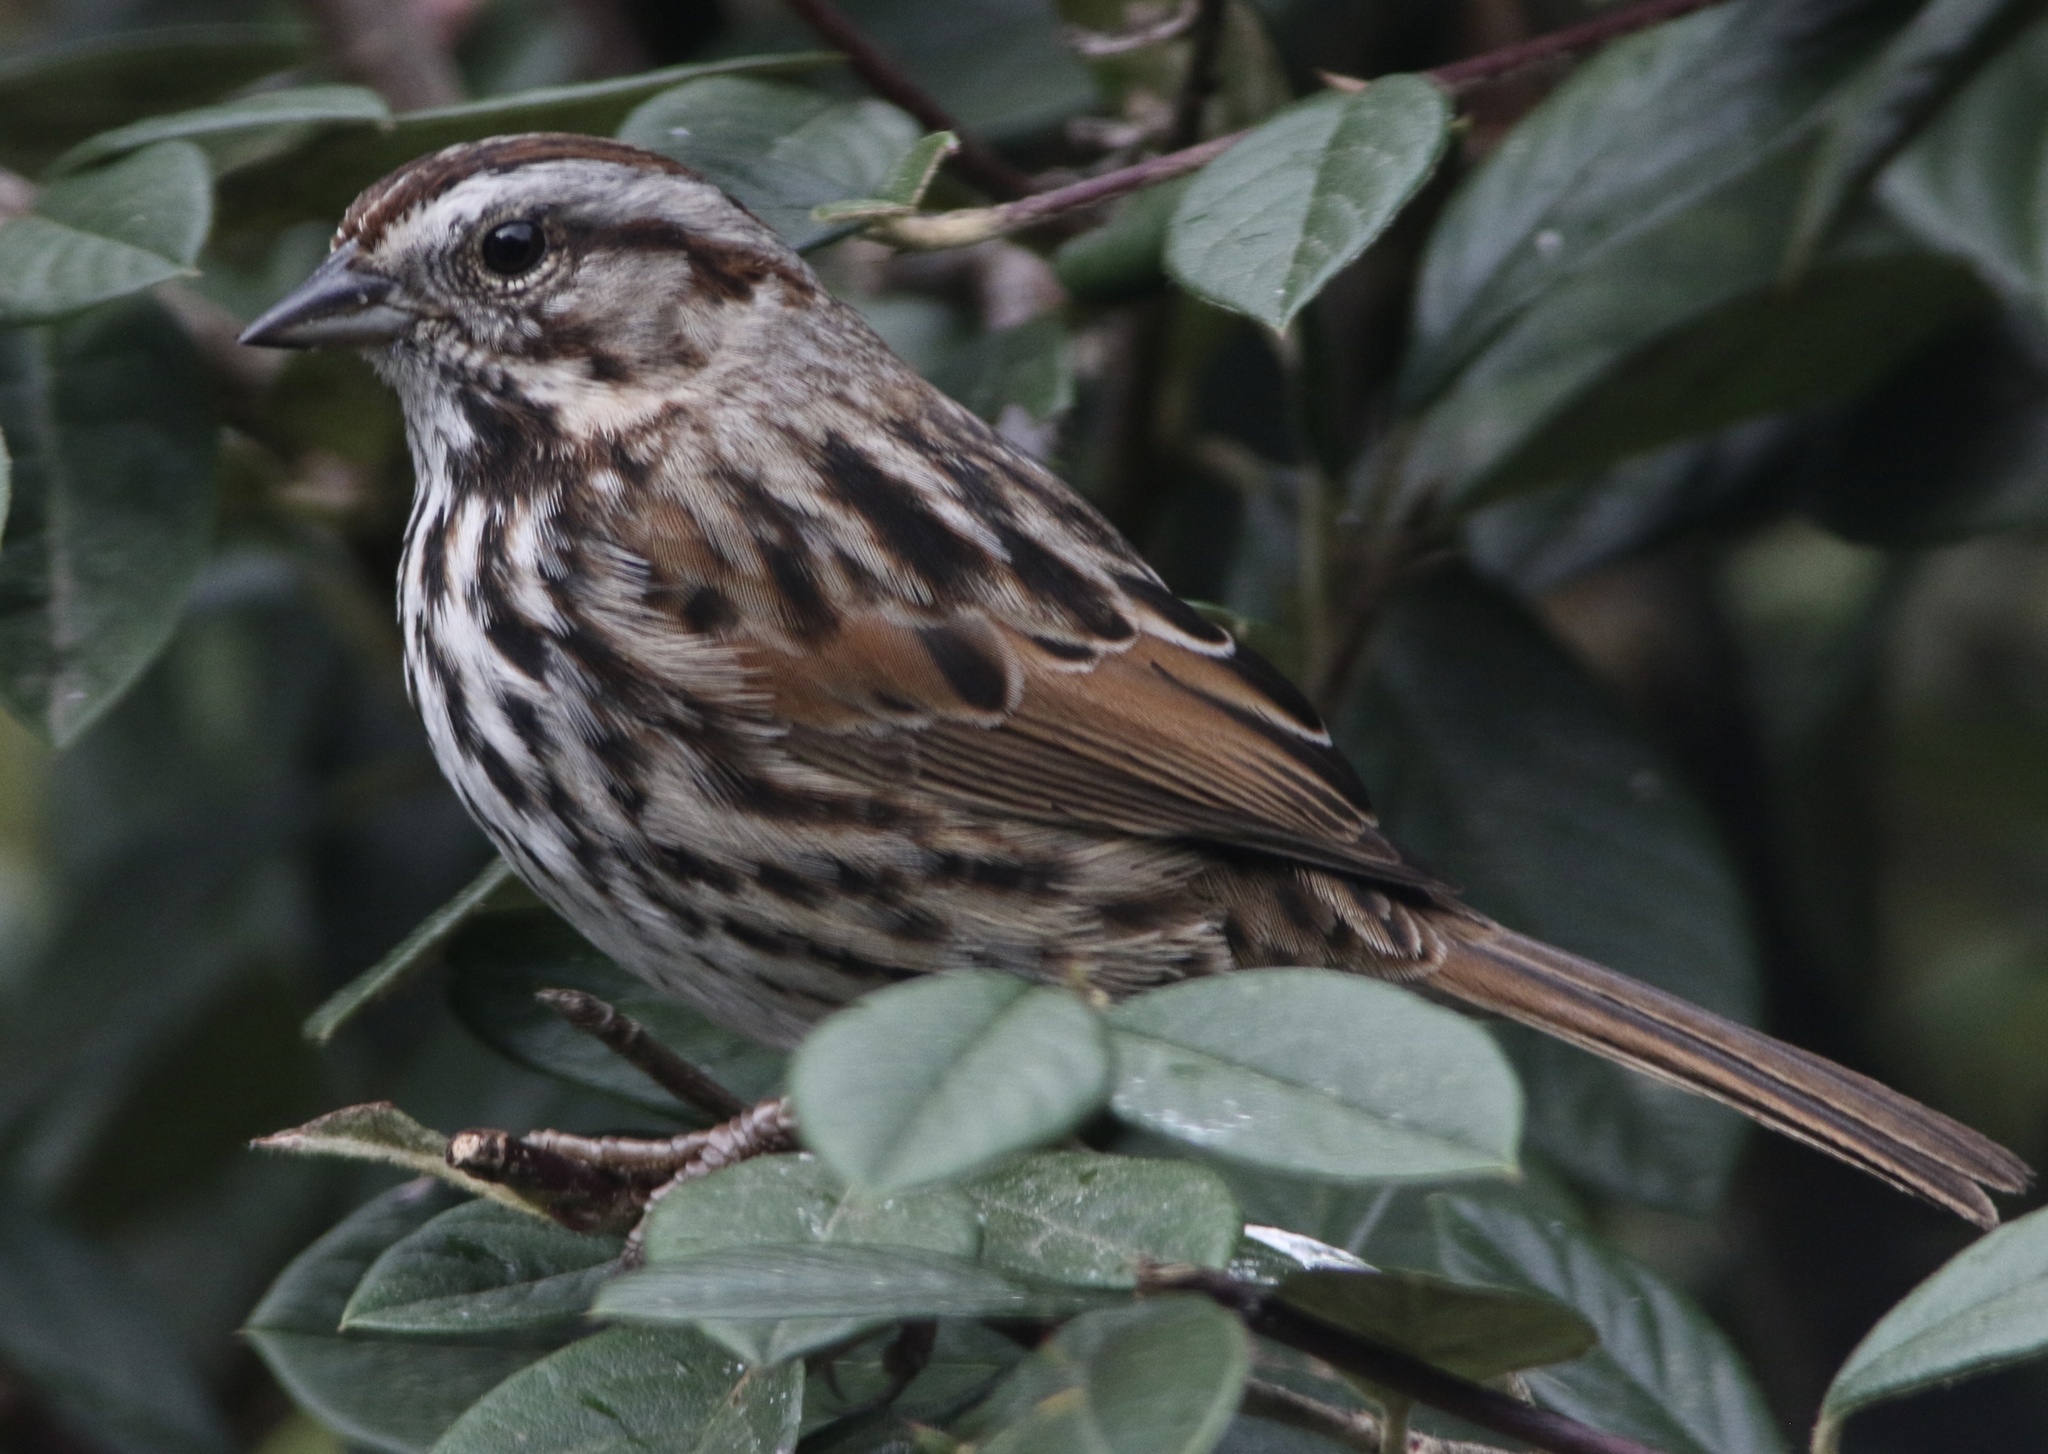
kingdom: Animalia
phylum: Chordata
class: Aves
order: Passeriformes
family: Passerellidae
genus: Melospiza
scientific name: Melospiza melodia
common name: Song sparrow
